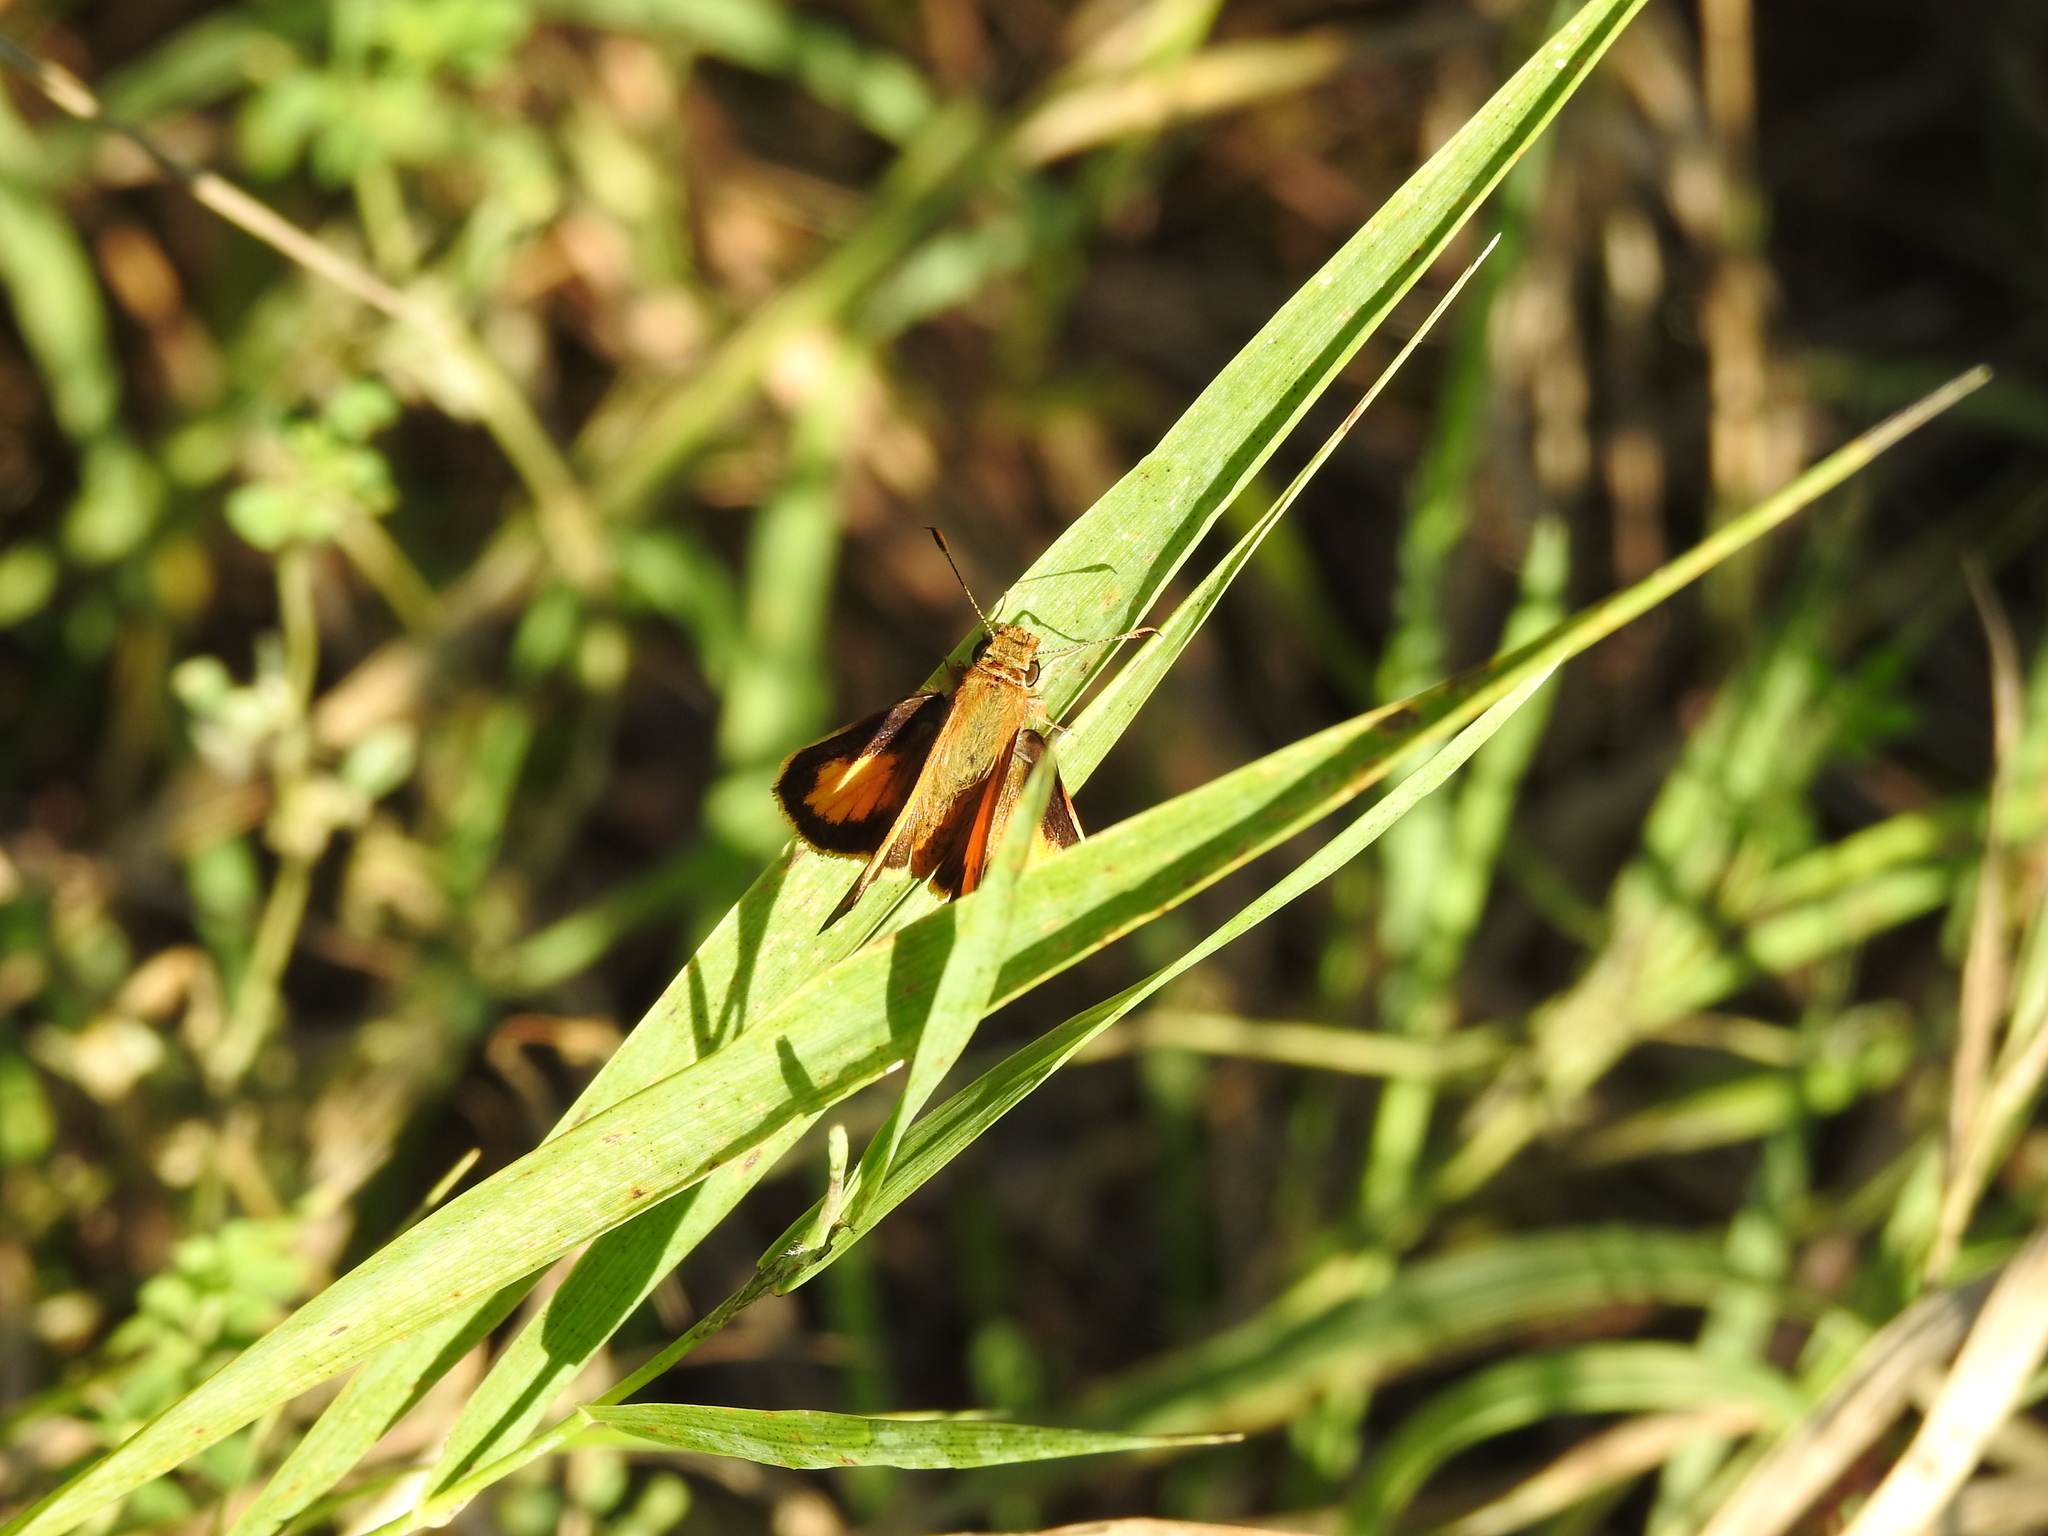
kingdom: Animalia
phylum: Arthropoda
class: Insecta
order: Lepidoptera
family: Hesperiidae
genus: Lon
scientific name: Lon zabulon
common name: Zabulon skipper
